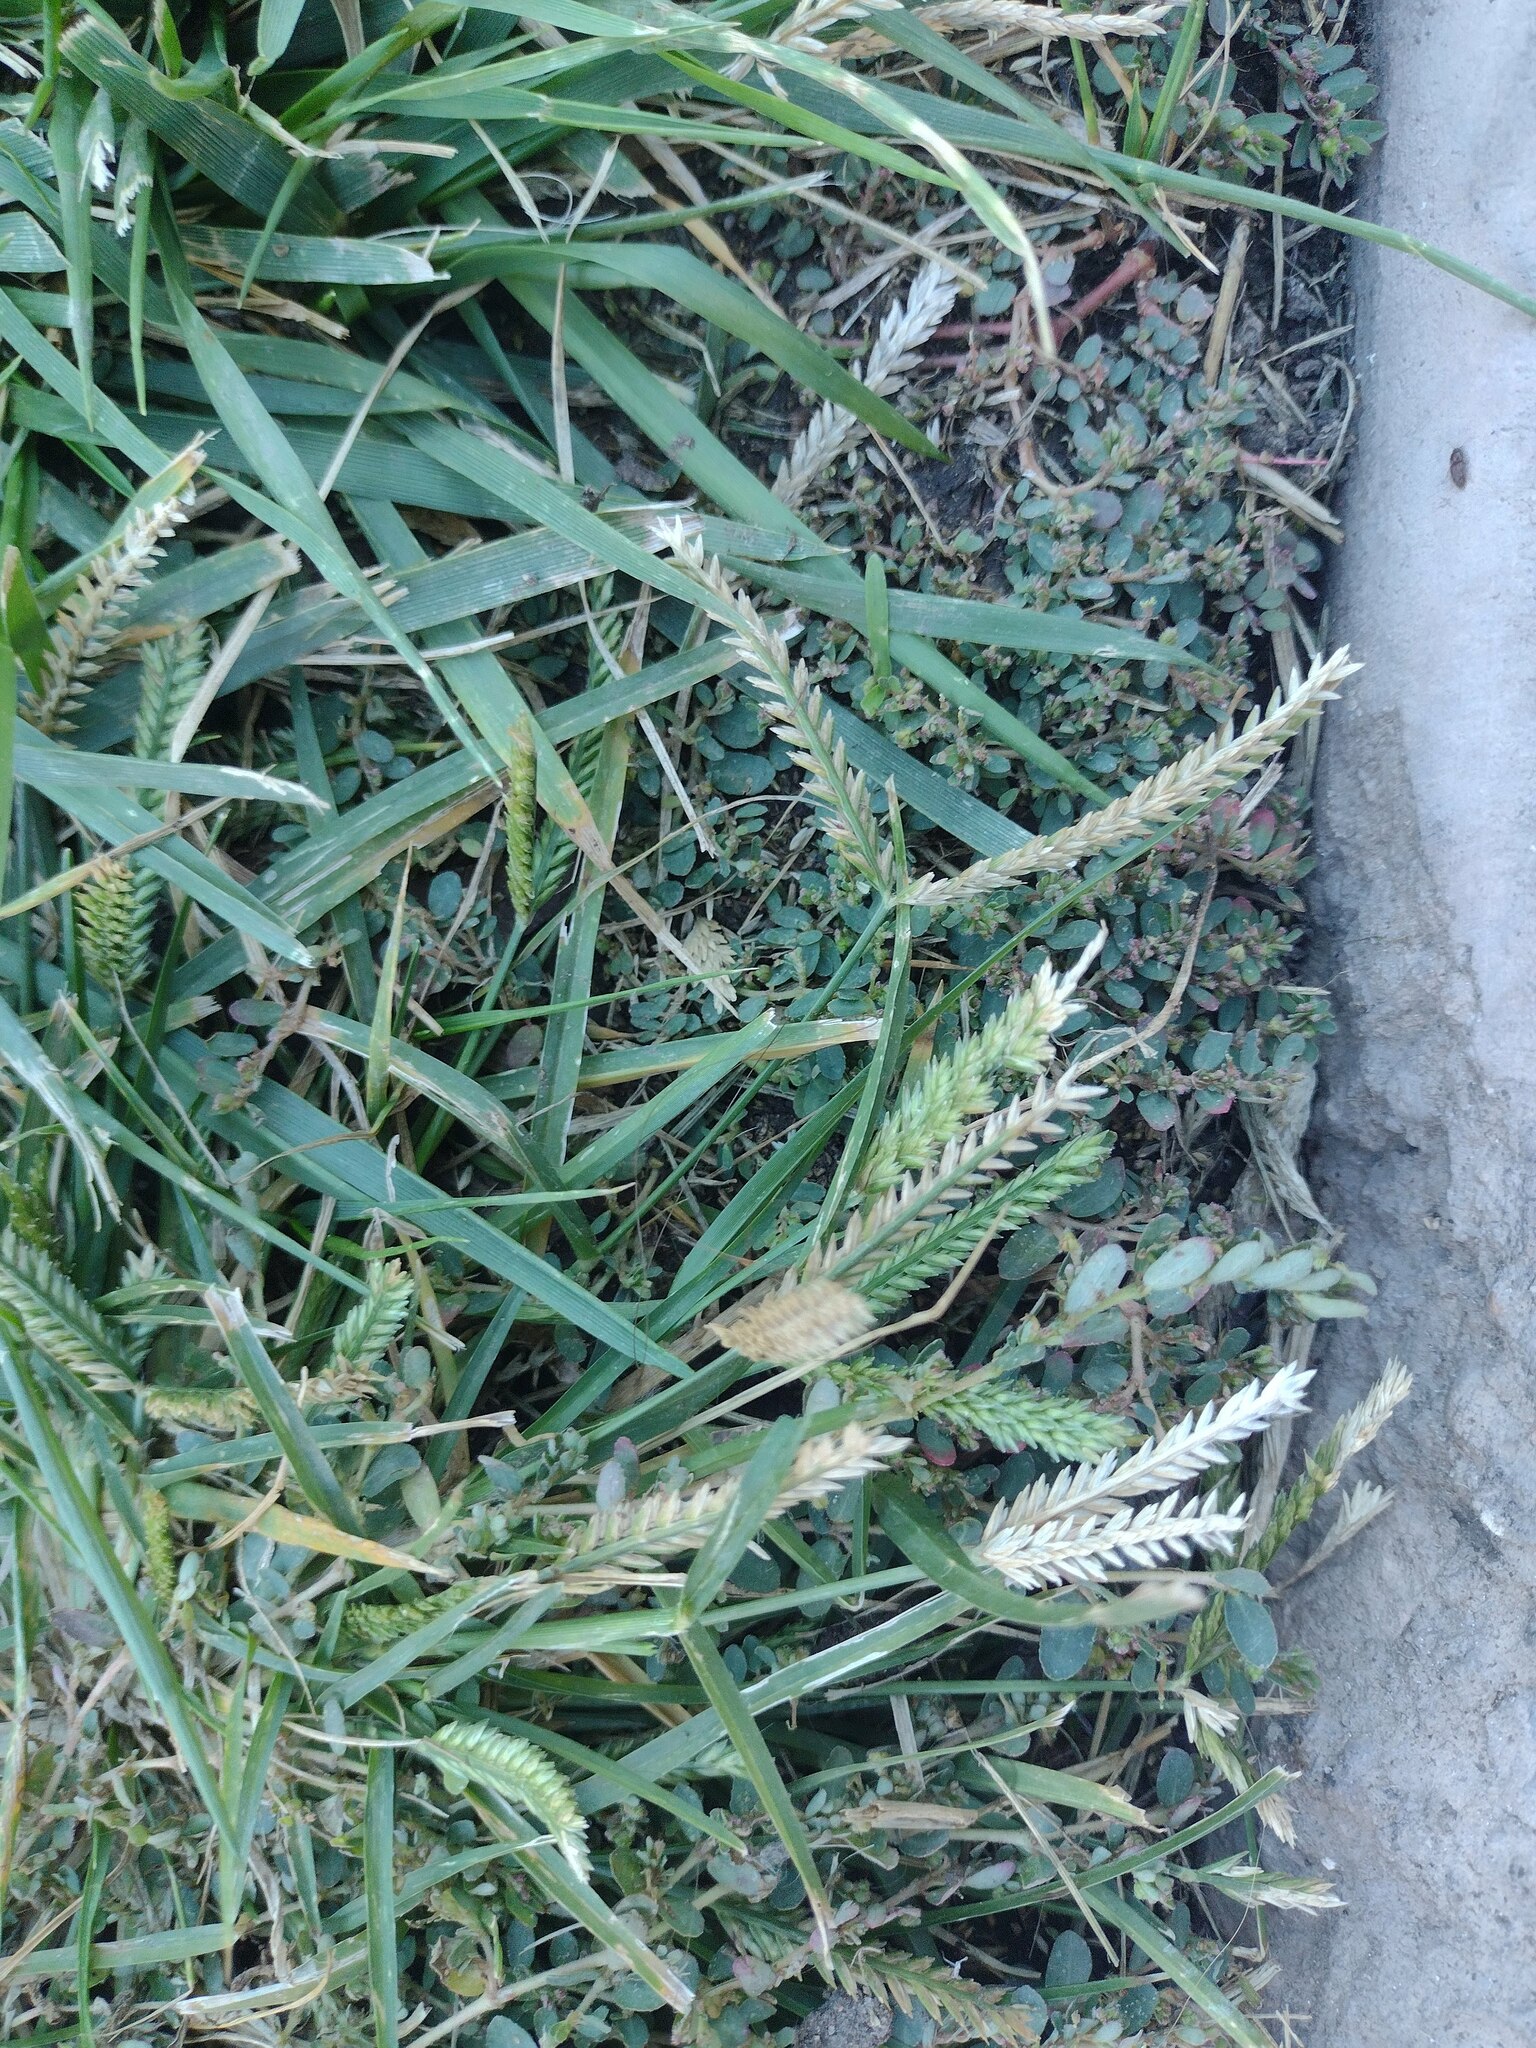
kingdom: Plantae
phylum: Tracheophyta
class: Liliopsida
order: Poales
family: Poaceae
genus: Eleusine
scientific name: Eleusine indica
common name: Yard-grass
